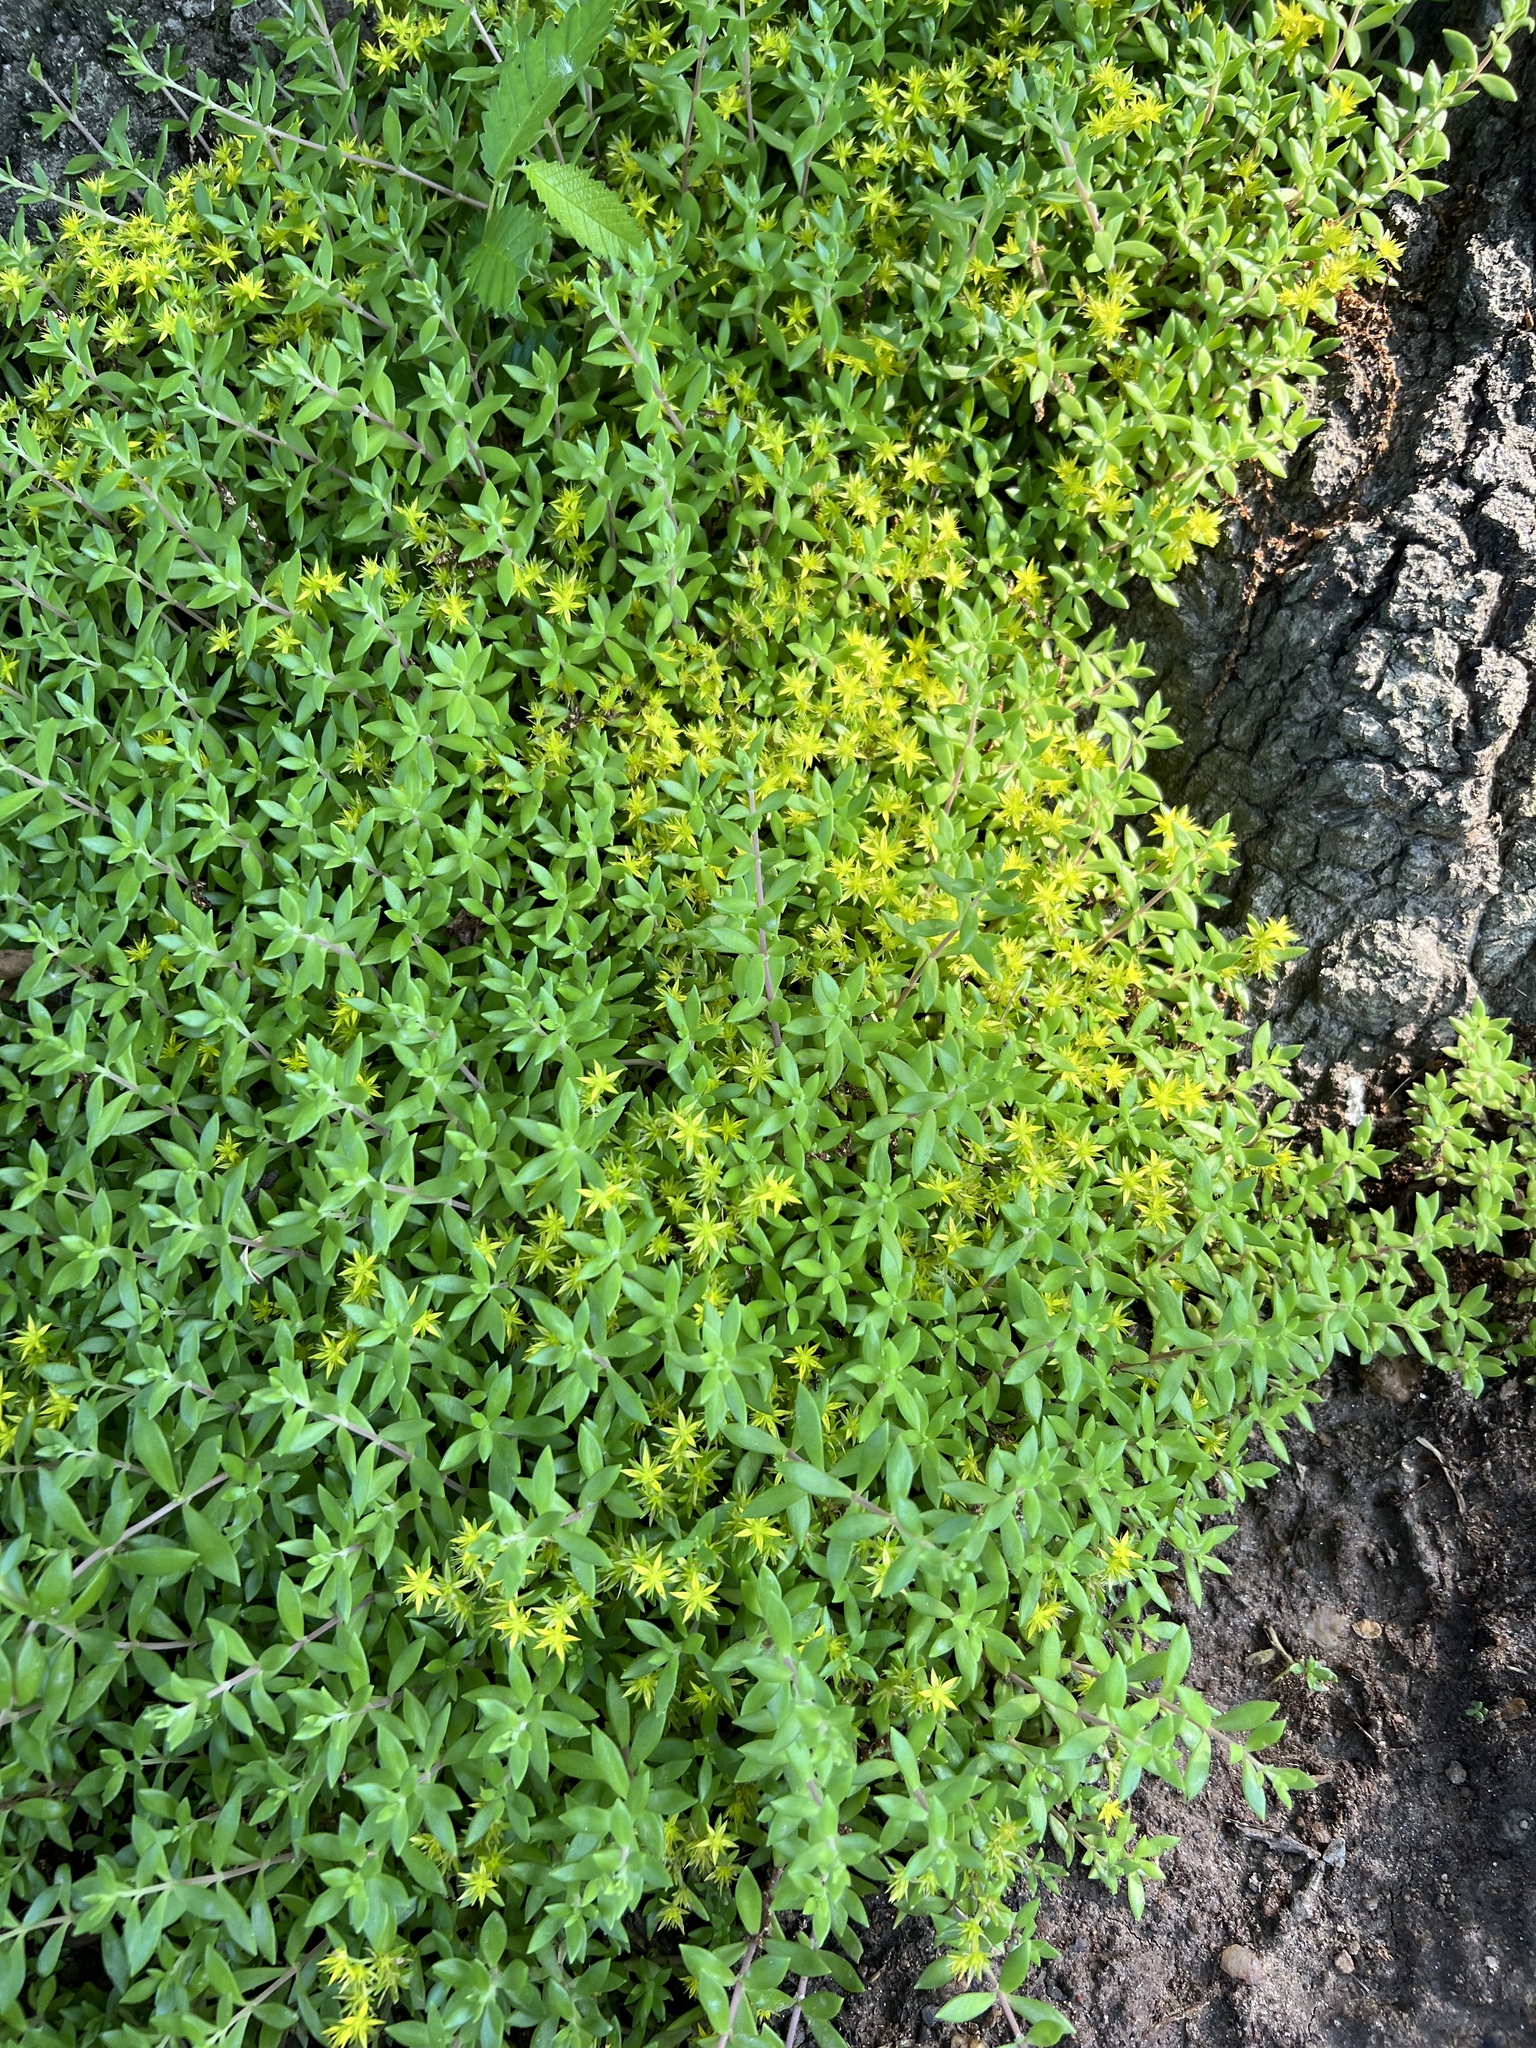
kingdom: Plantae
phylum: Tracheophyta
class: Magnoliopsida
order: Saxifragales
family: Crassulaceae
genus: Sedum
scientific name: Sedum sarmentosum
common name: Stringy stonecrop
